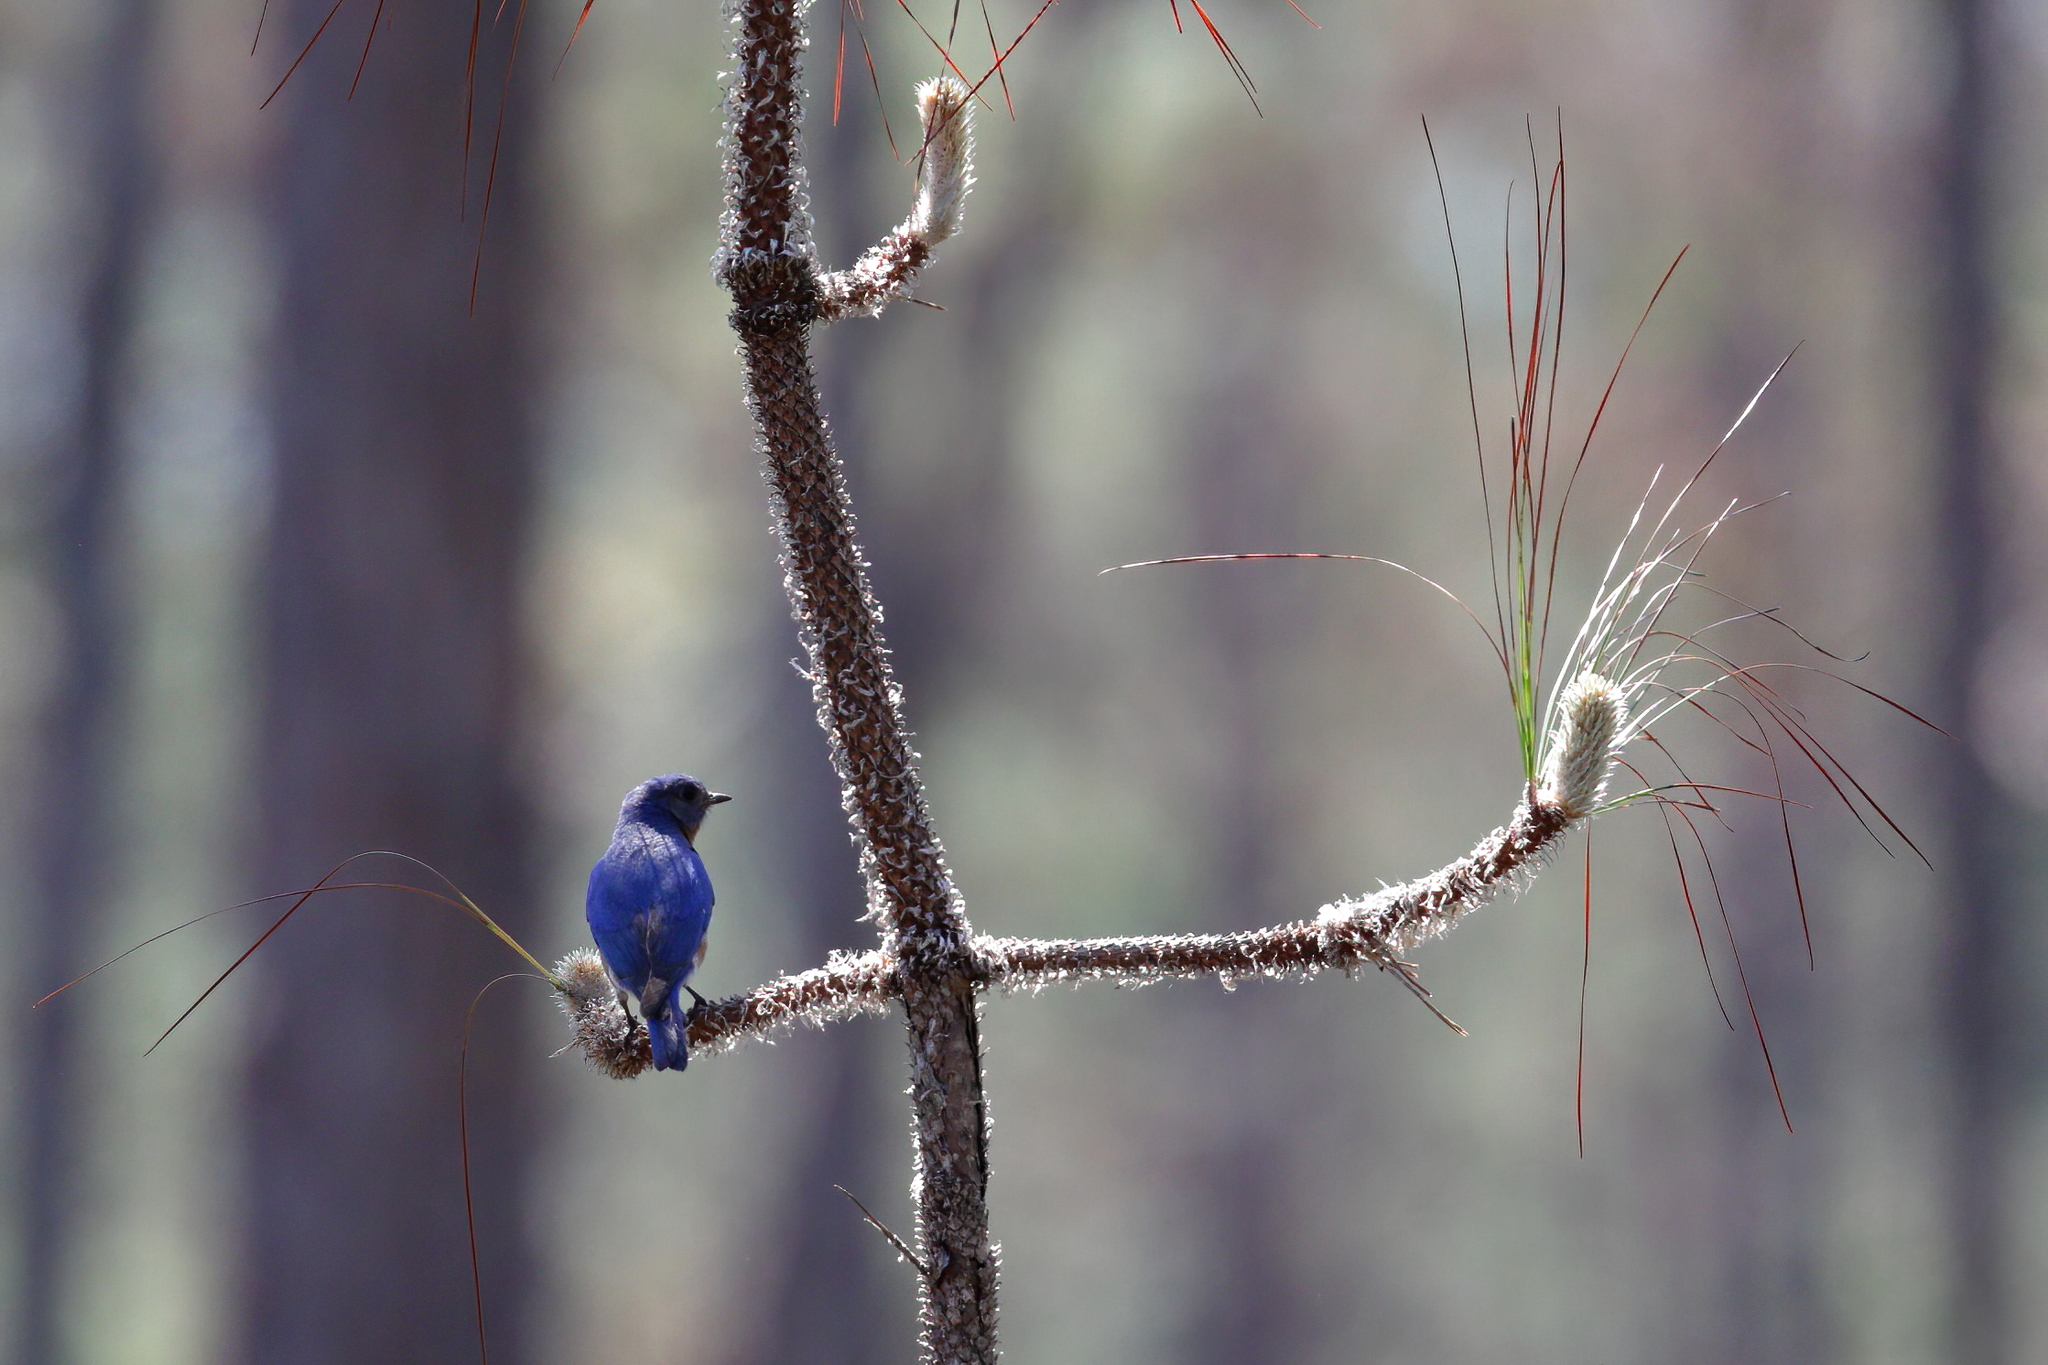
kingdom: Animalia
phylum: Chordata
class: Aves
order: Passeriformes
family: Turdidae
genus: Sialia
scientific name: Sialia sialis
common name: Eastern bluebird
